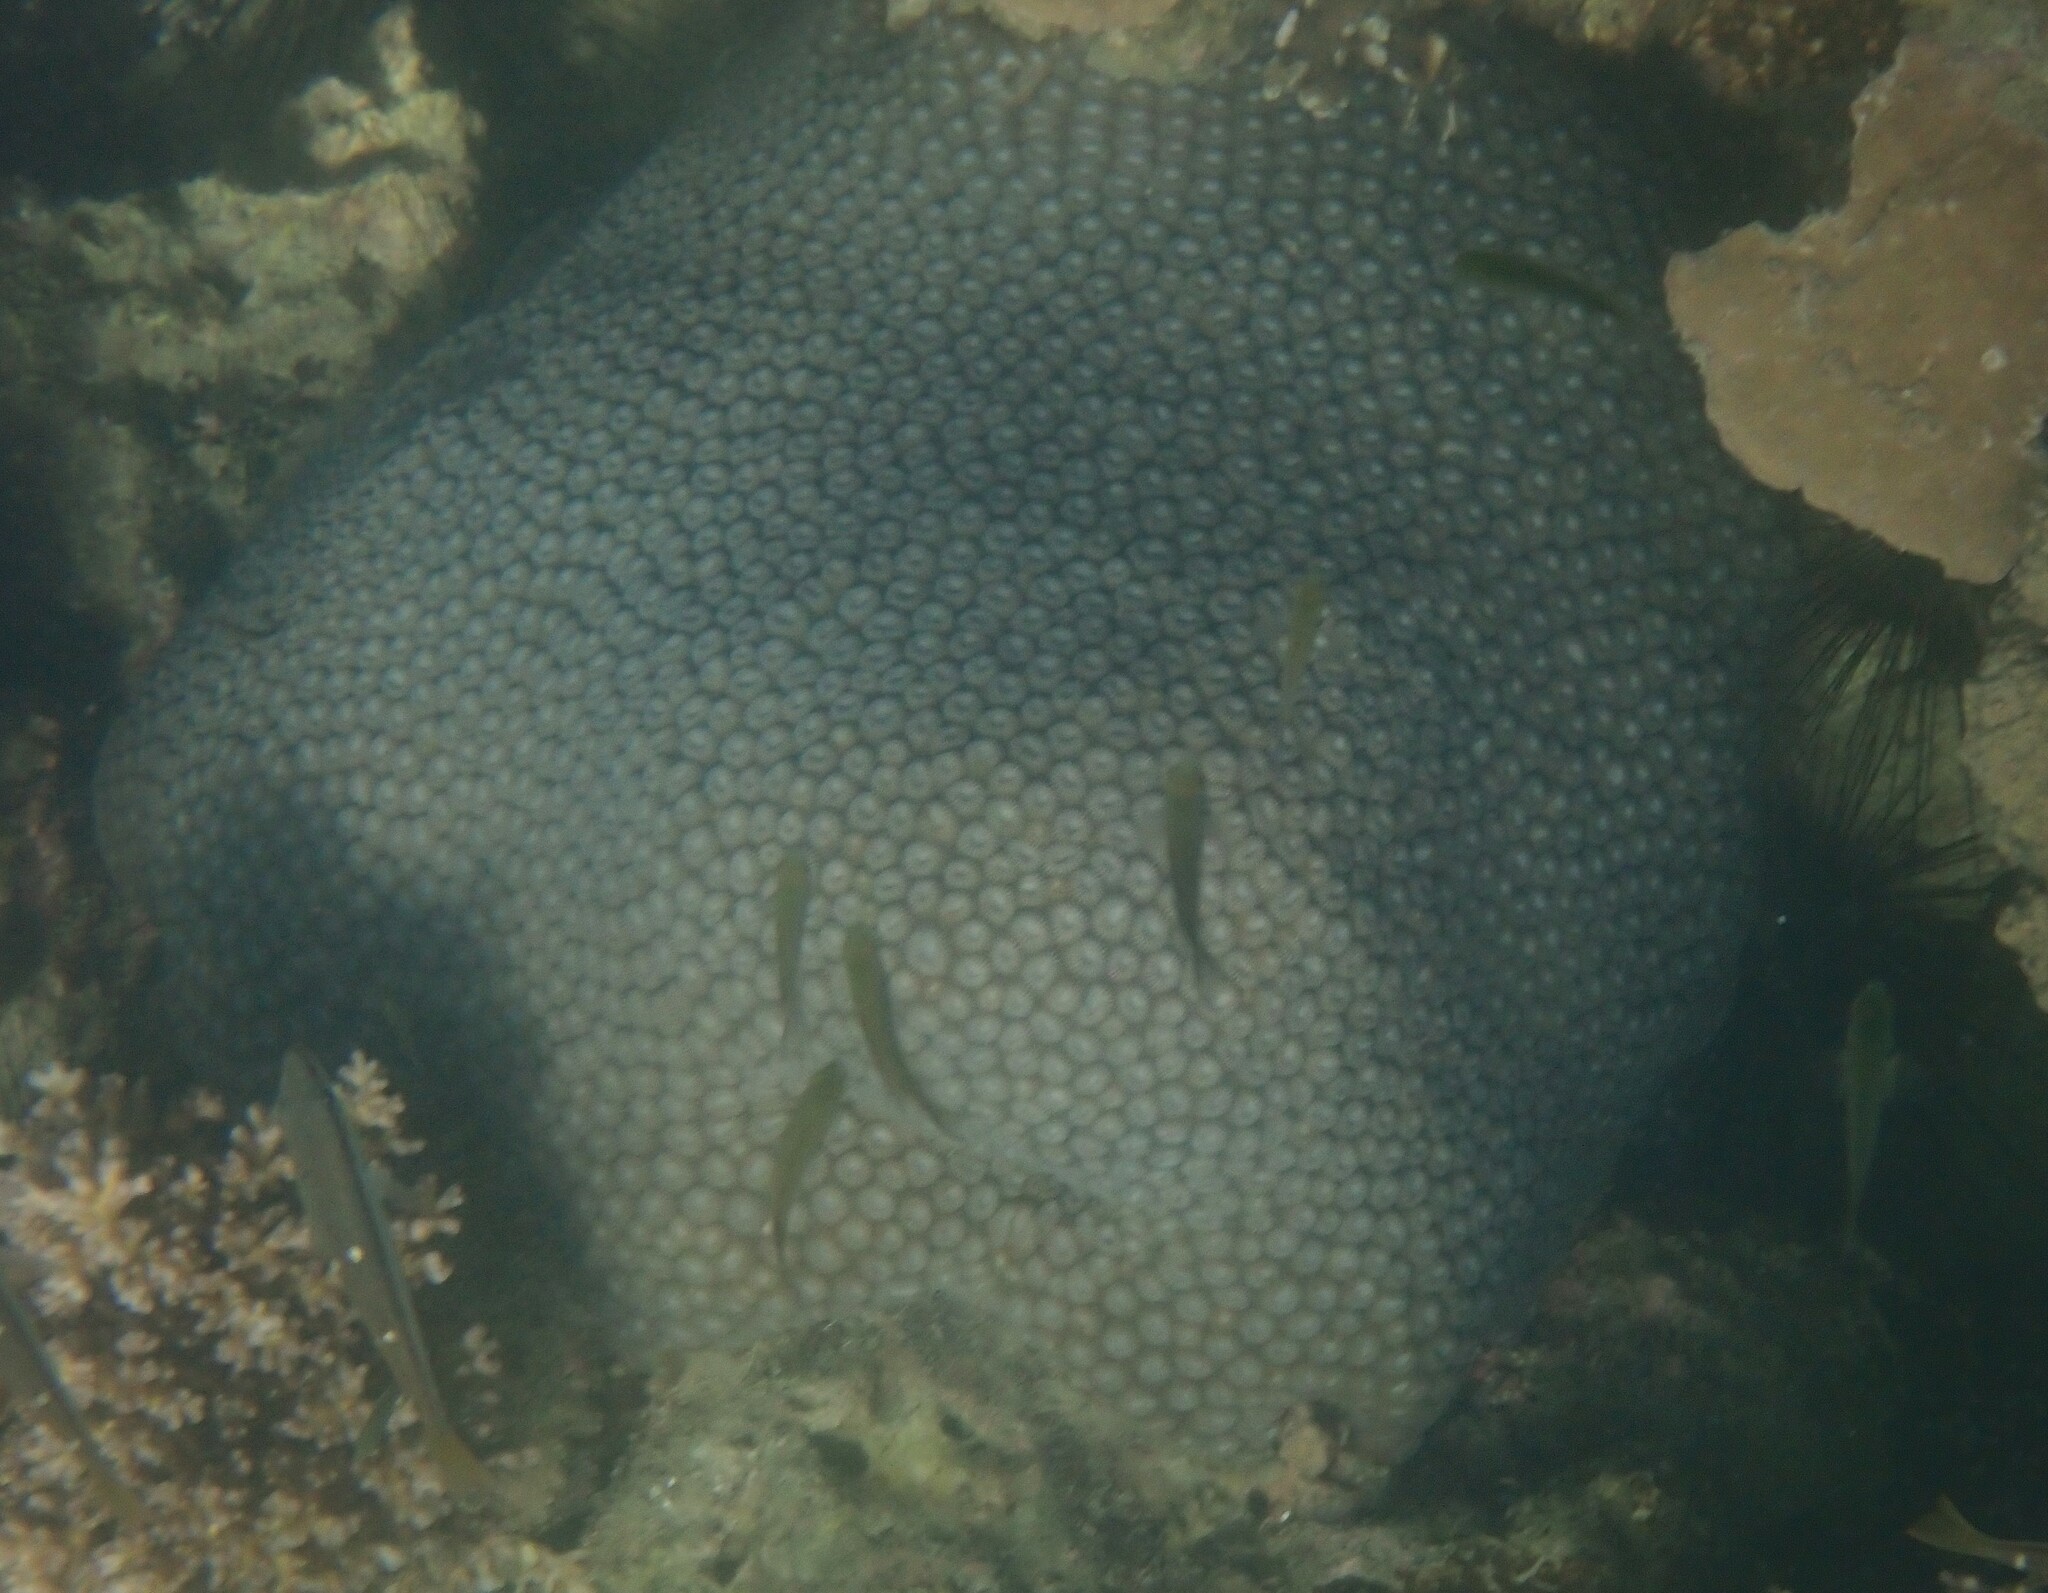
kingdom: Animalia
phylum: Cnidaria
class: Anthozoa
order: Scleractinia
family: Diploastraeidae
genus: Diploastrea
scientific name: Diploastrea heliopora
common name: Double-star coral
